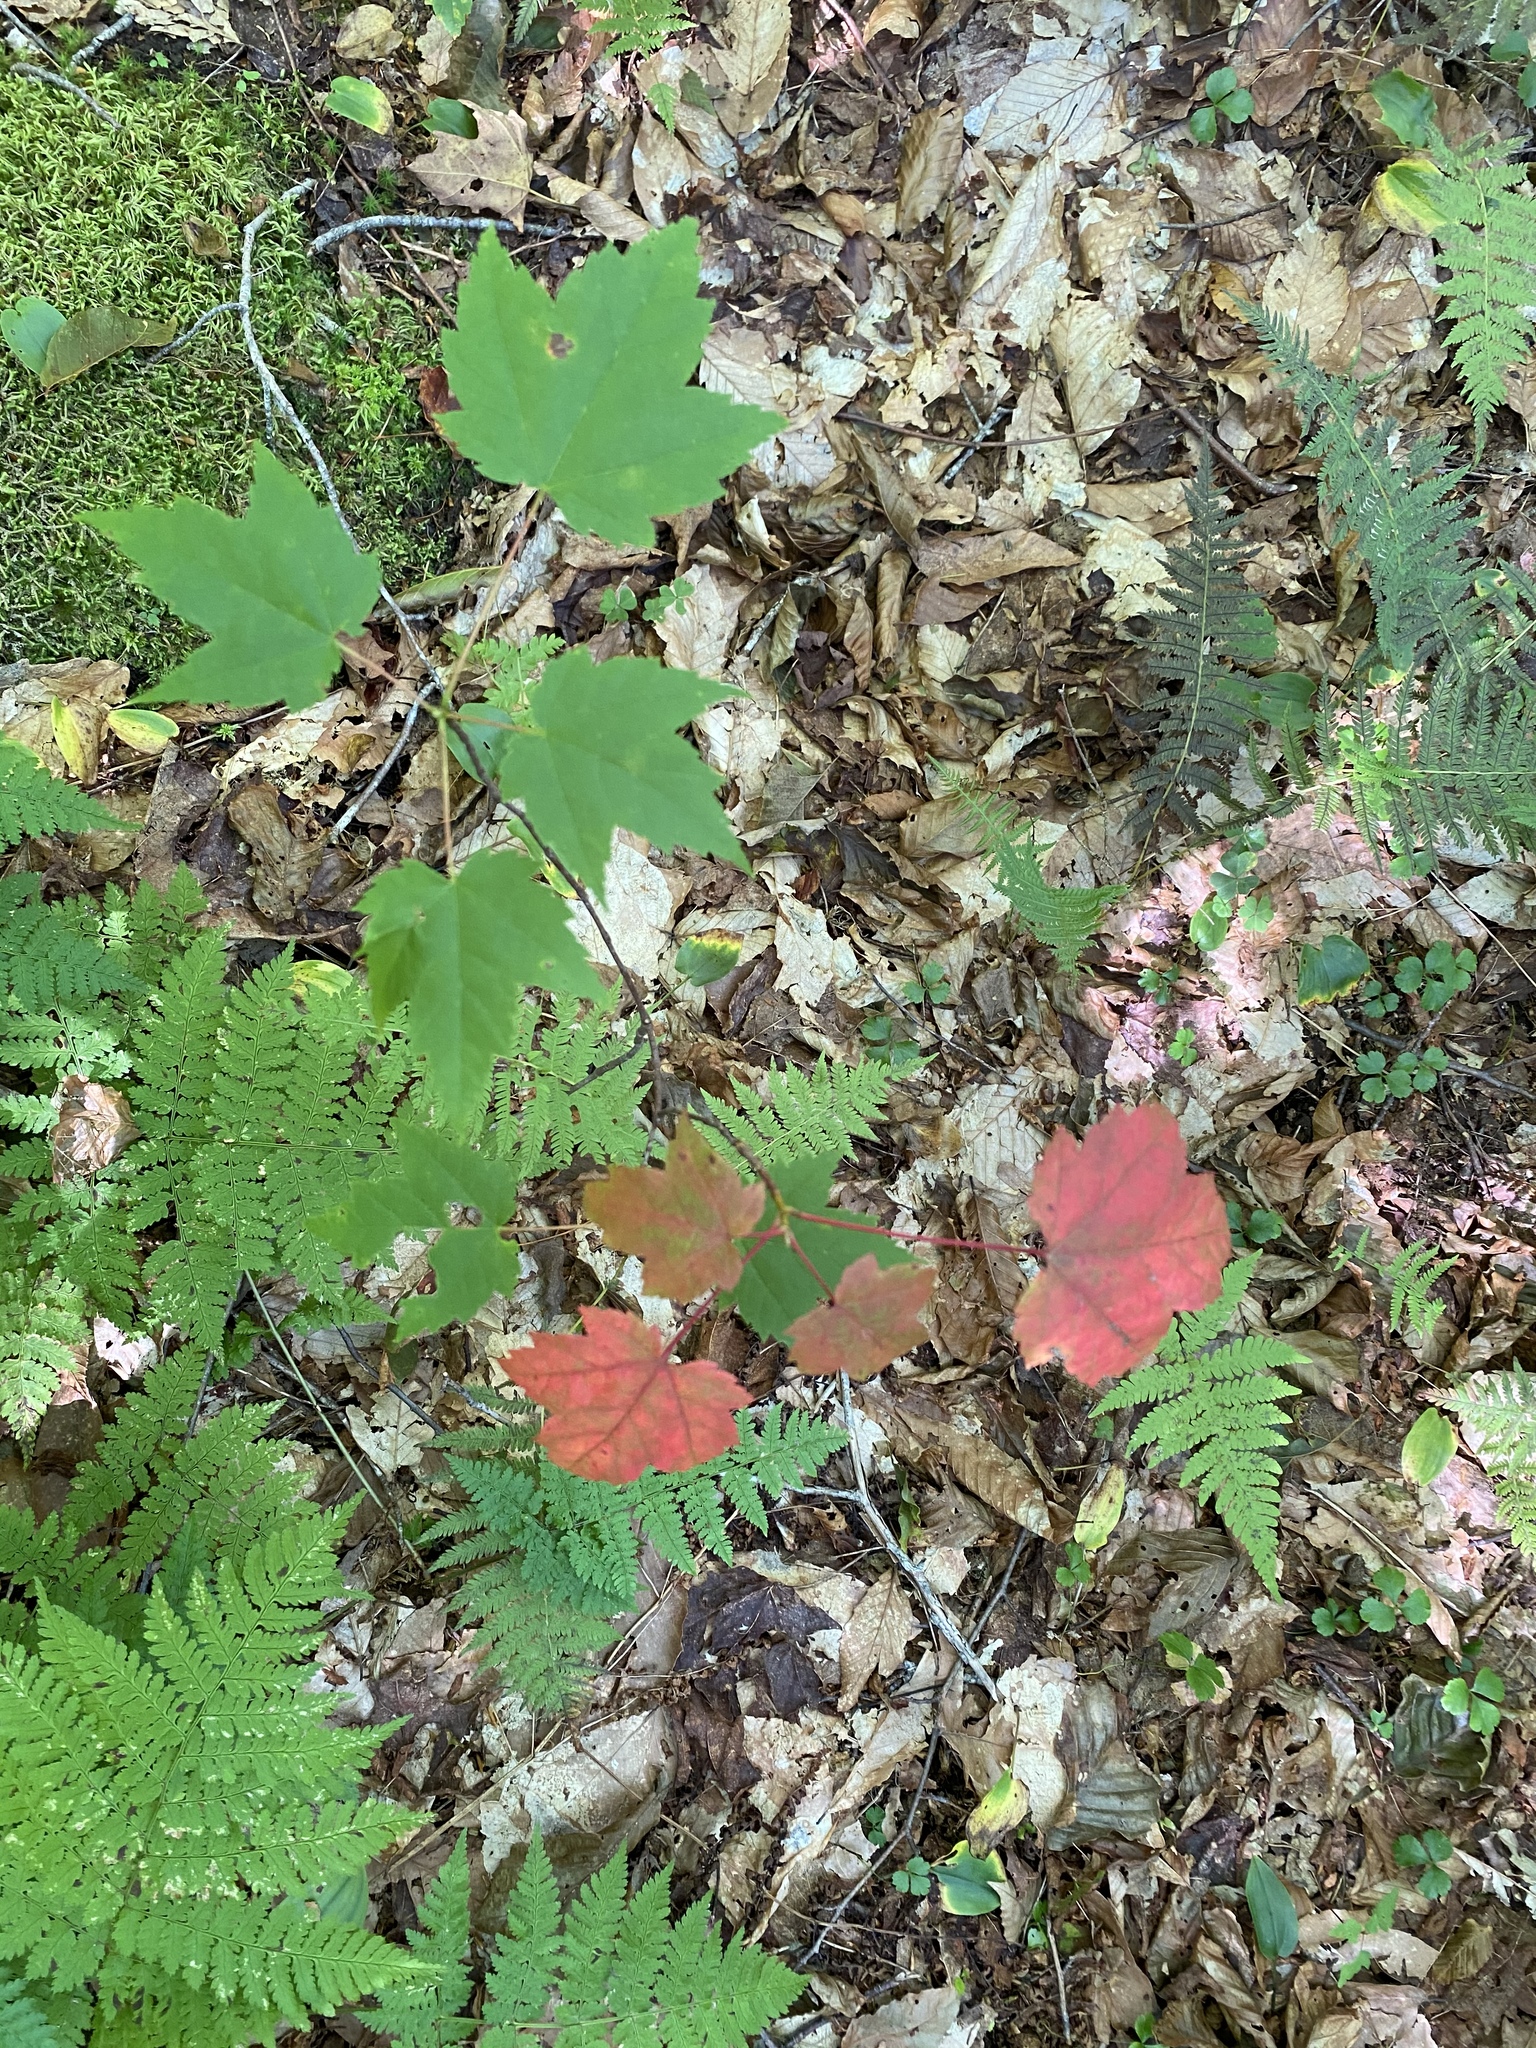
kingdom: Plantae
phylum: Tracheophyta
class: Magnoliopsida
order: Sapindales
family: Sapindaceae
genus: Acer
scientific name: Acer rubrum
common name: Red maple
